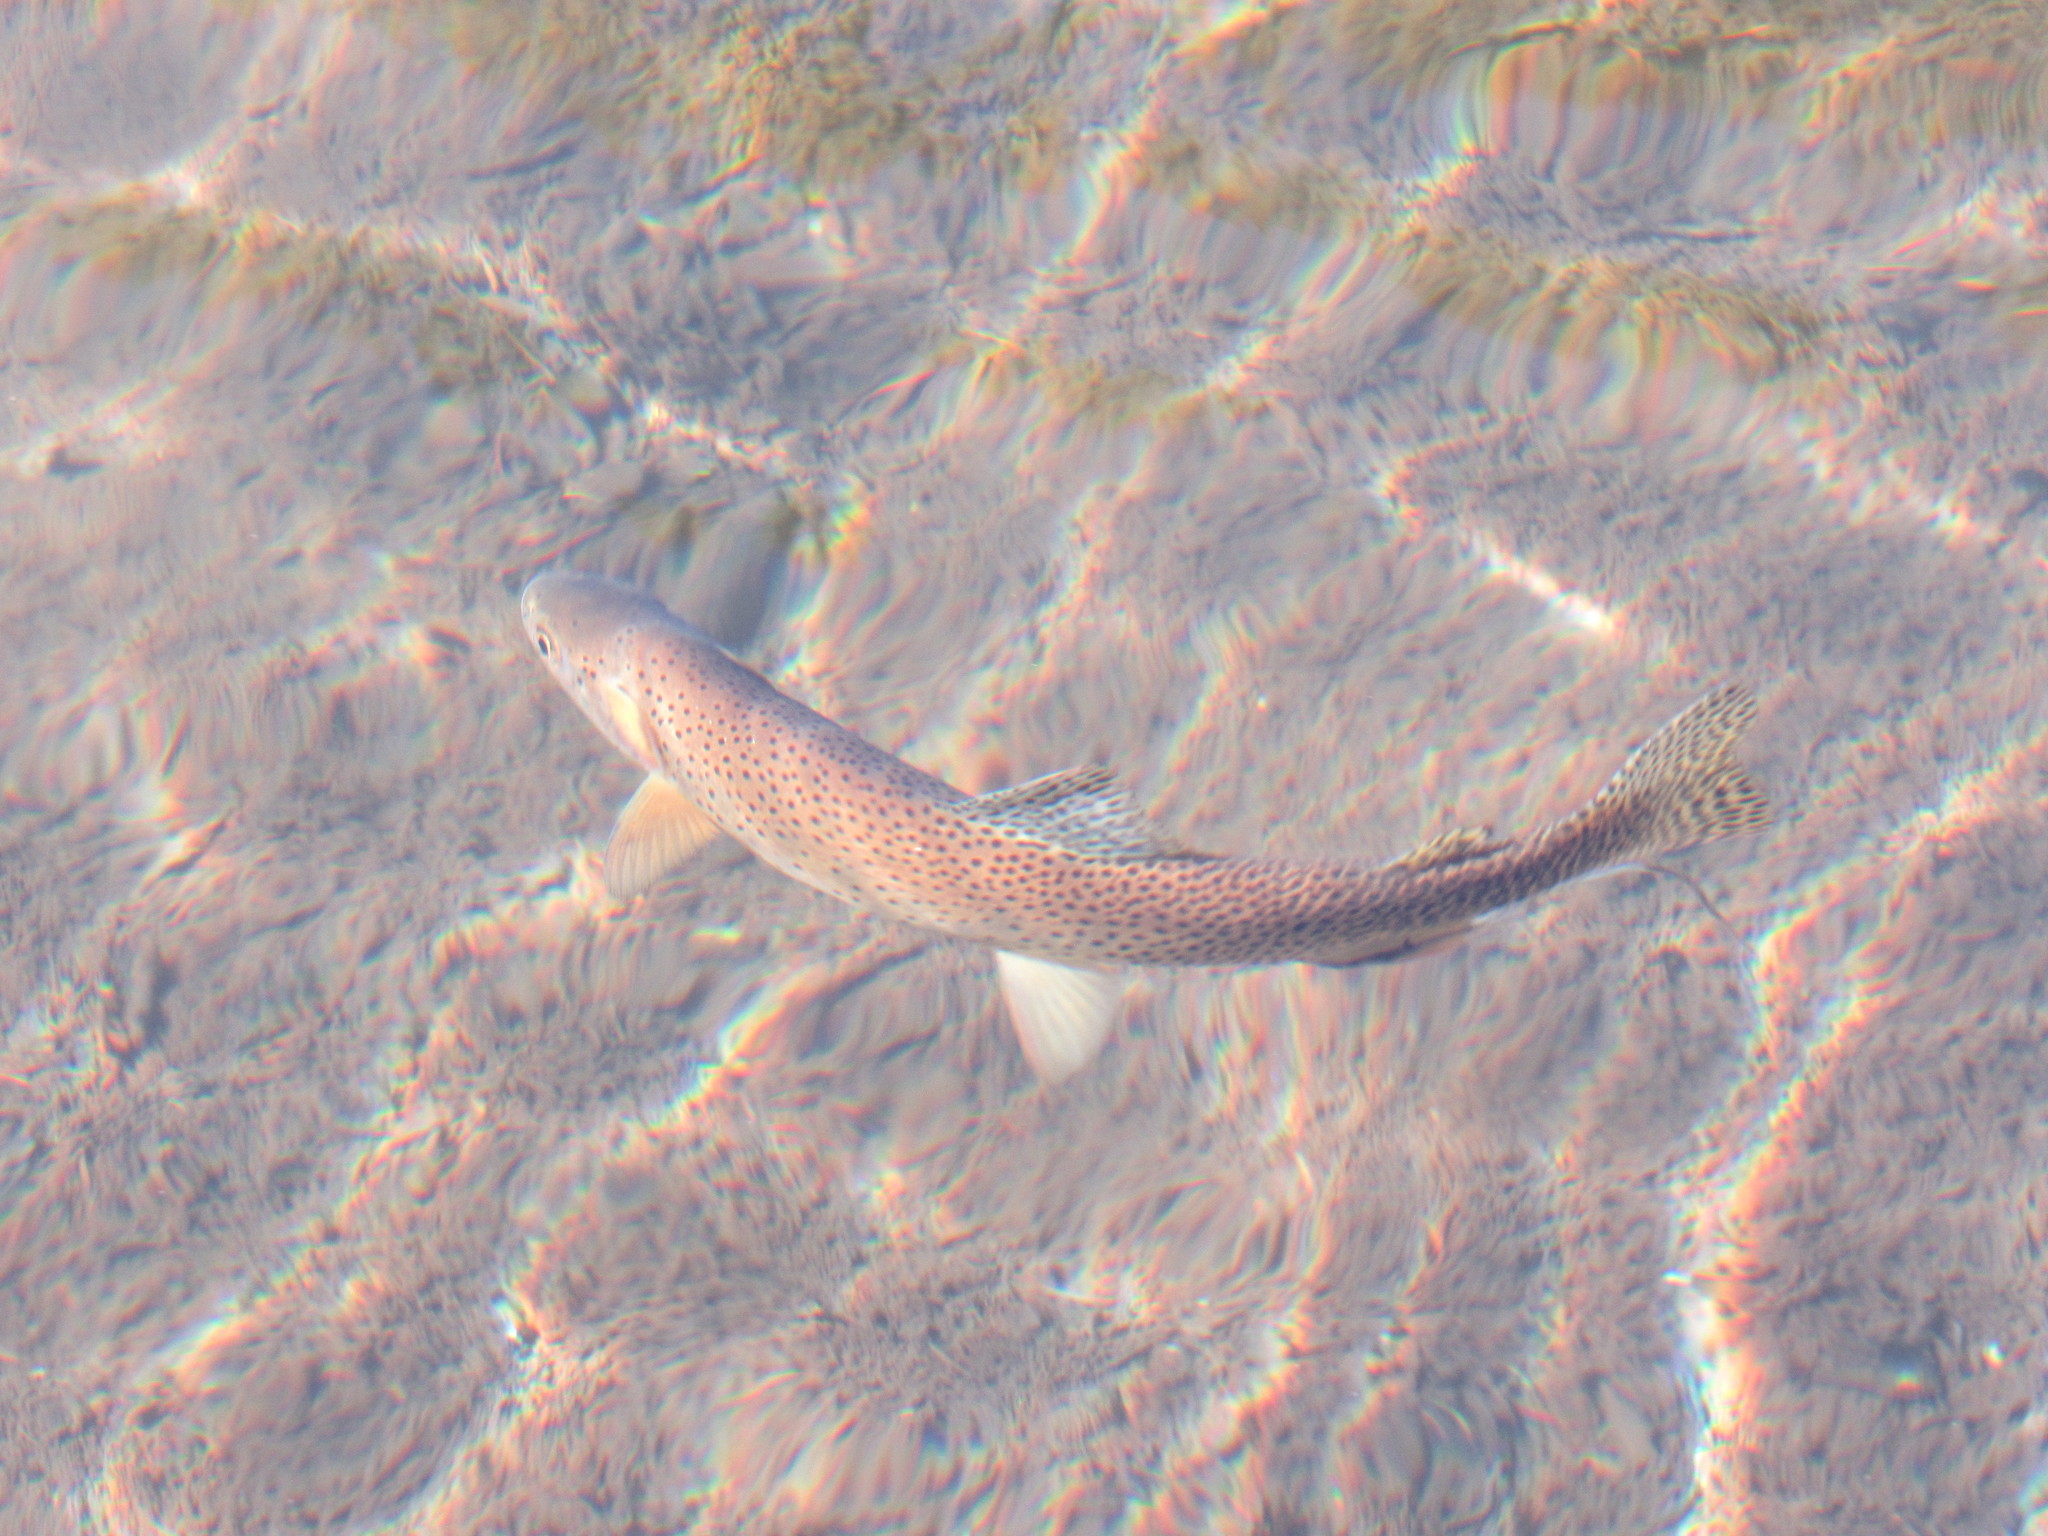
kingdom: Animalia
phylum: Chordata
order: Salmoniformes
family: Salmonidae
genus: Oncorhynchus
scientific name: Oncorhynchus virginalis
